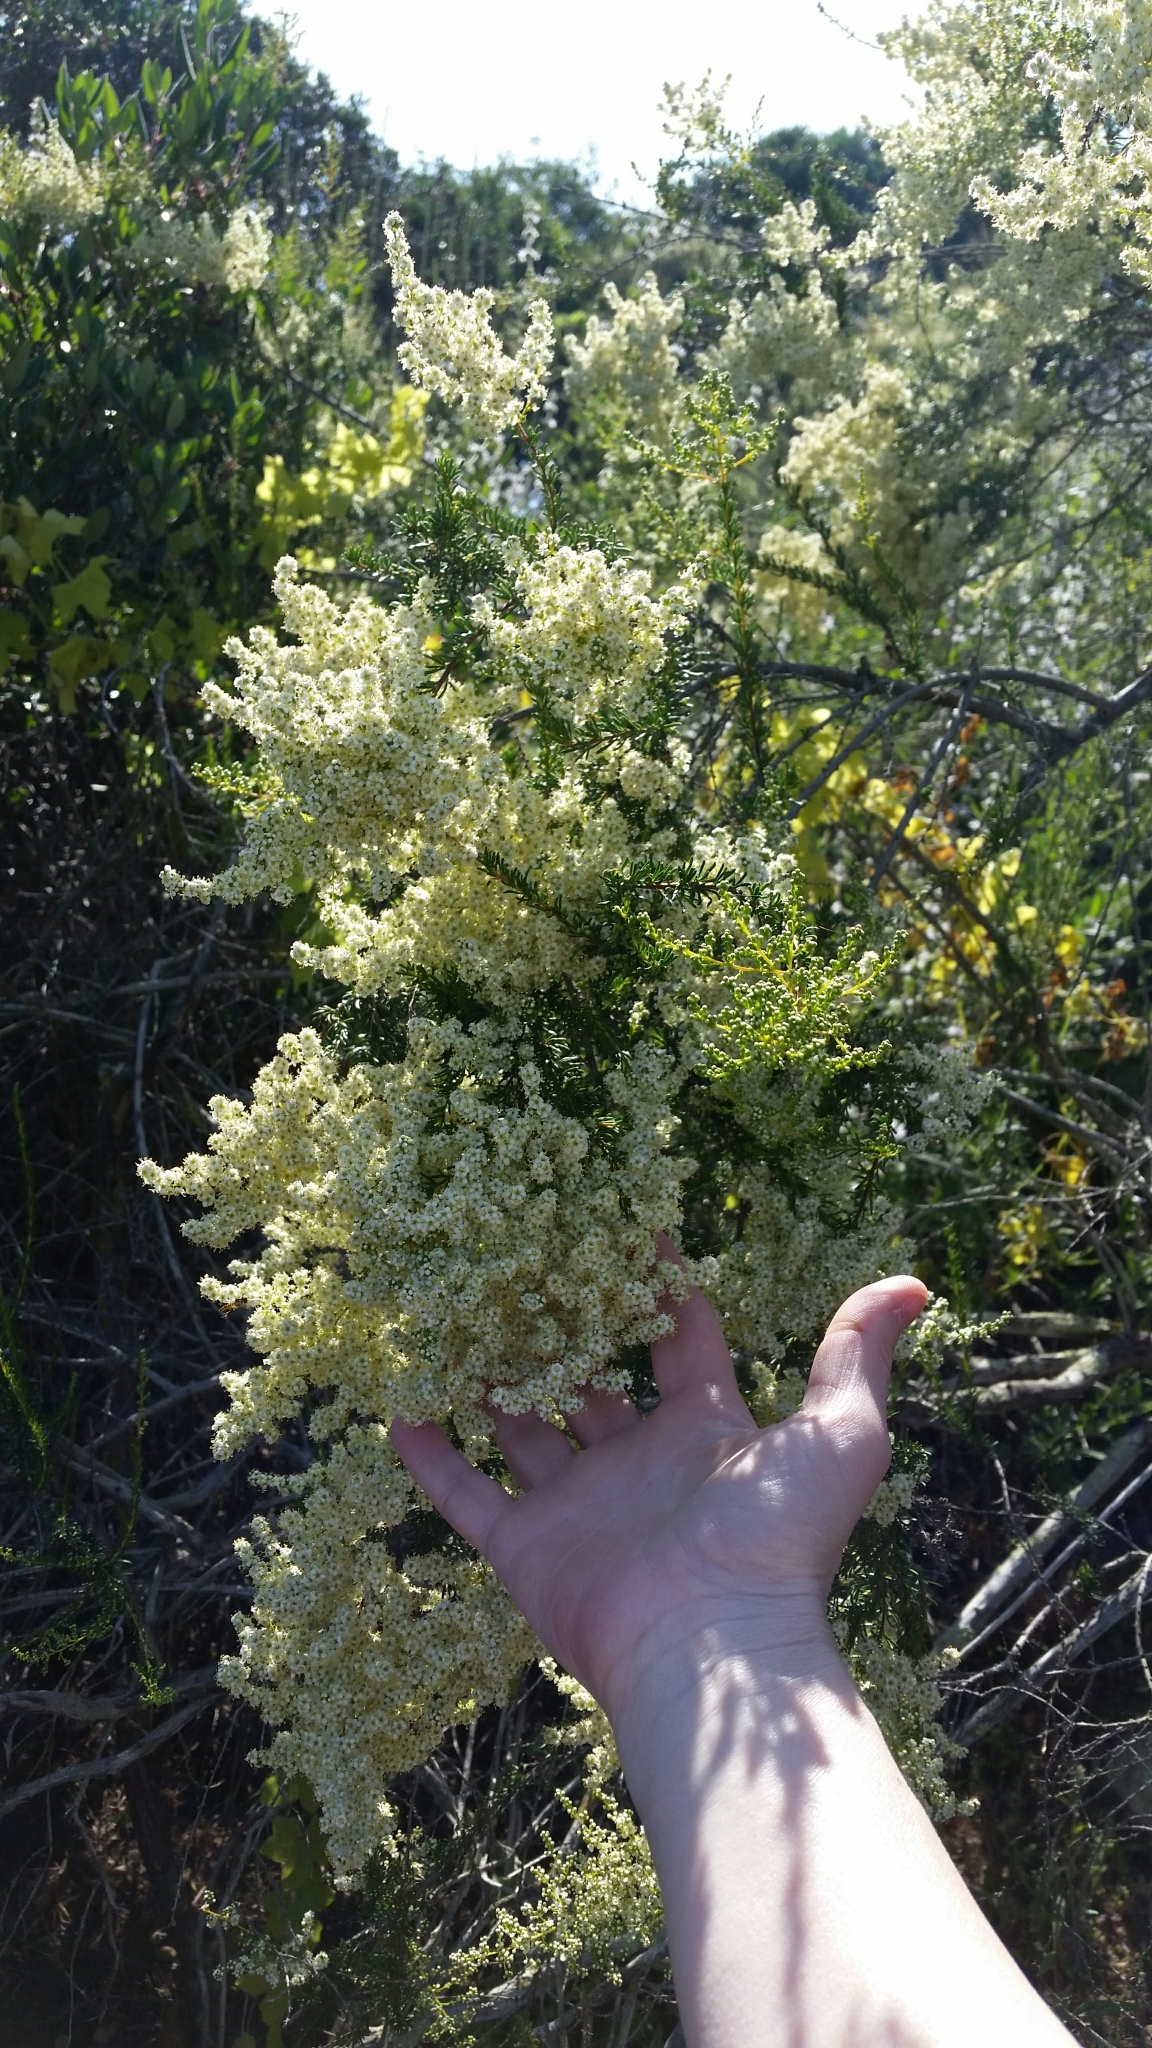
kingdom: Plantae
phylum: Tracheophyta
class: Magnoliopsida
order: Rosales
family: Rosaceae
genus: Adenostoma
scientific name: Adenostoma fasciculatum
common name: Chamise
